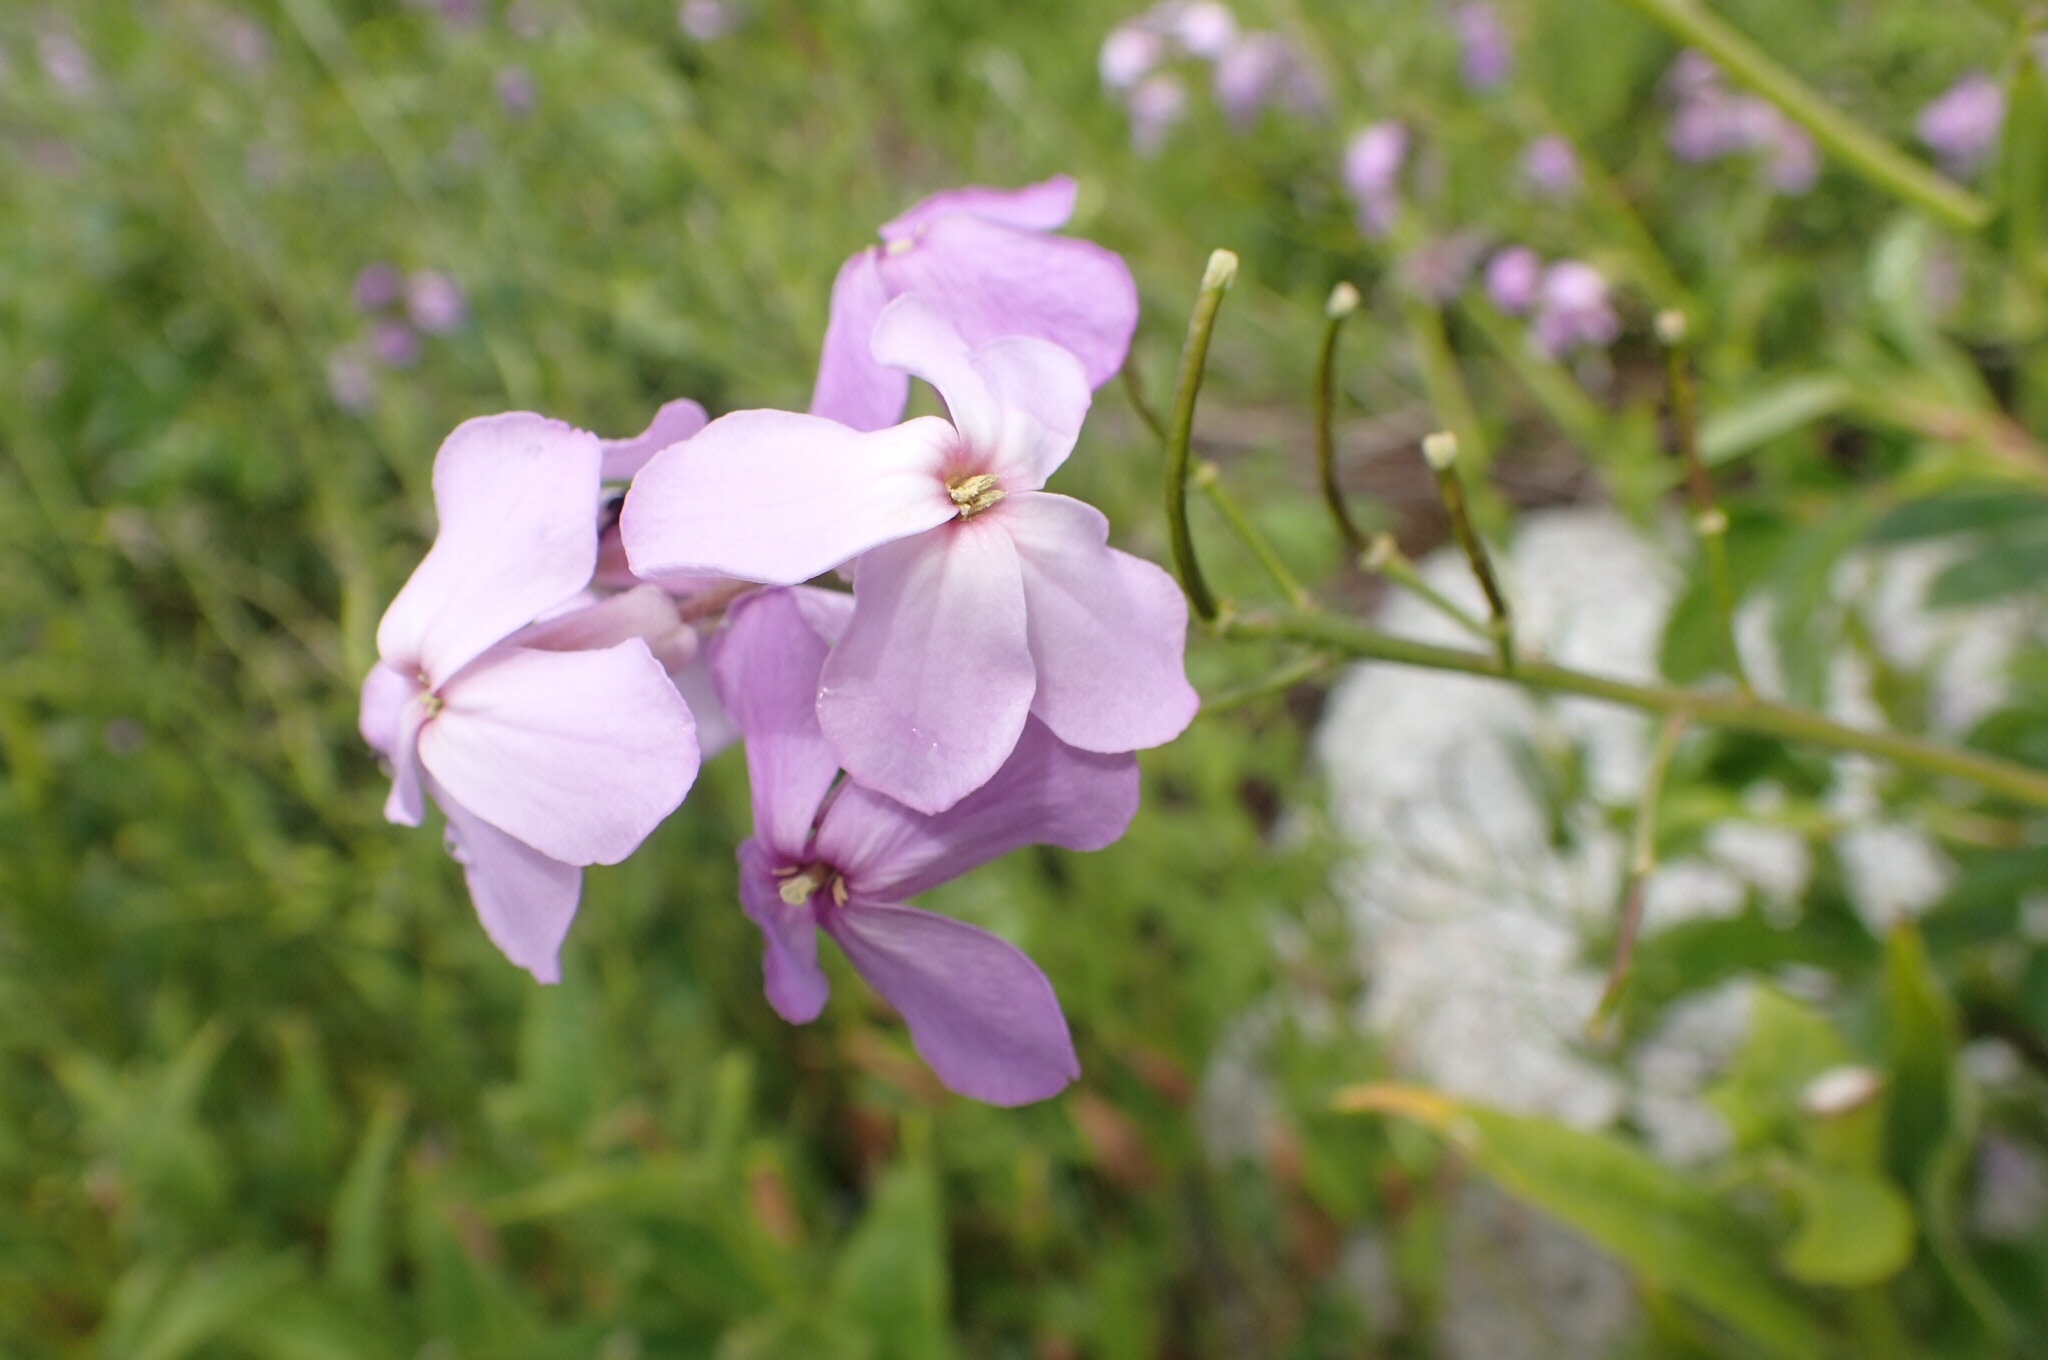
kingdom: Plantae
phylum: Tracheophyta
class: Magnoliopsida
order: Brassicales
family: Brassicaceae
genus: Hesperis
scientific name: Hesperis matronalis
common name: Dame's-violet
